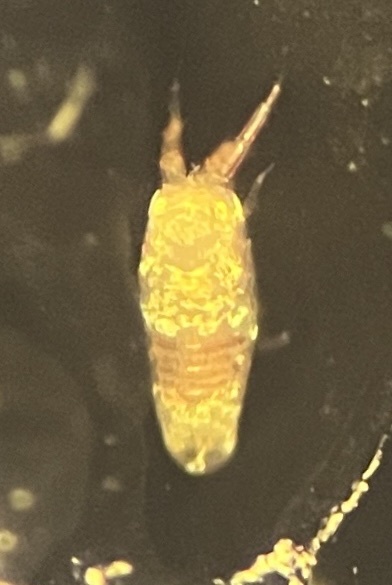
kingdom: Animalia
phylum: Arthropoda
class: Malacostraca
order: Isopoda
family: Idoteidae
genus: Idotea
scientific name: Idotea metallica
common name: Metallic marine isopod
